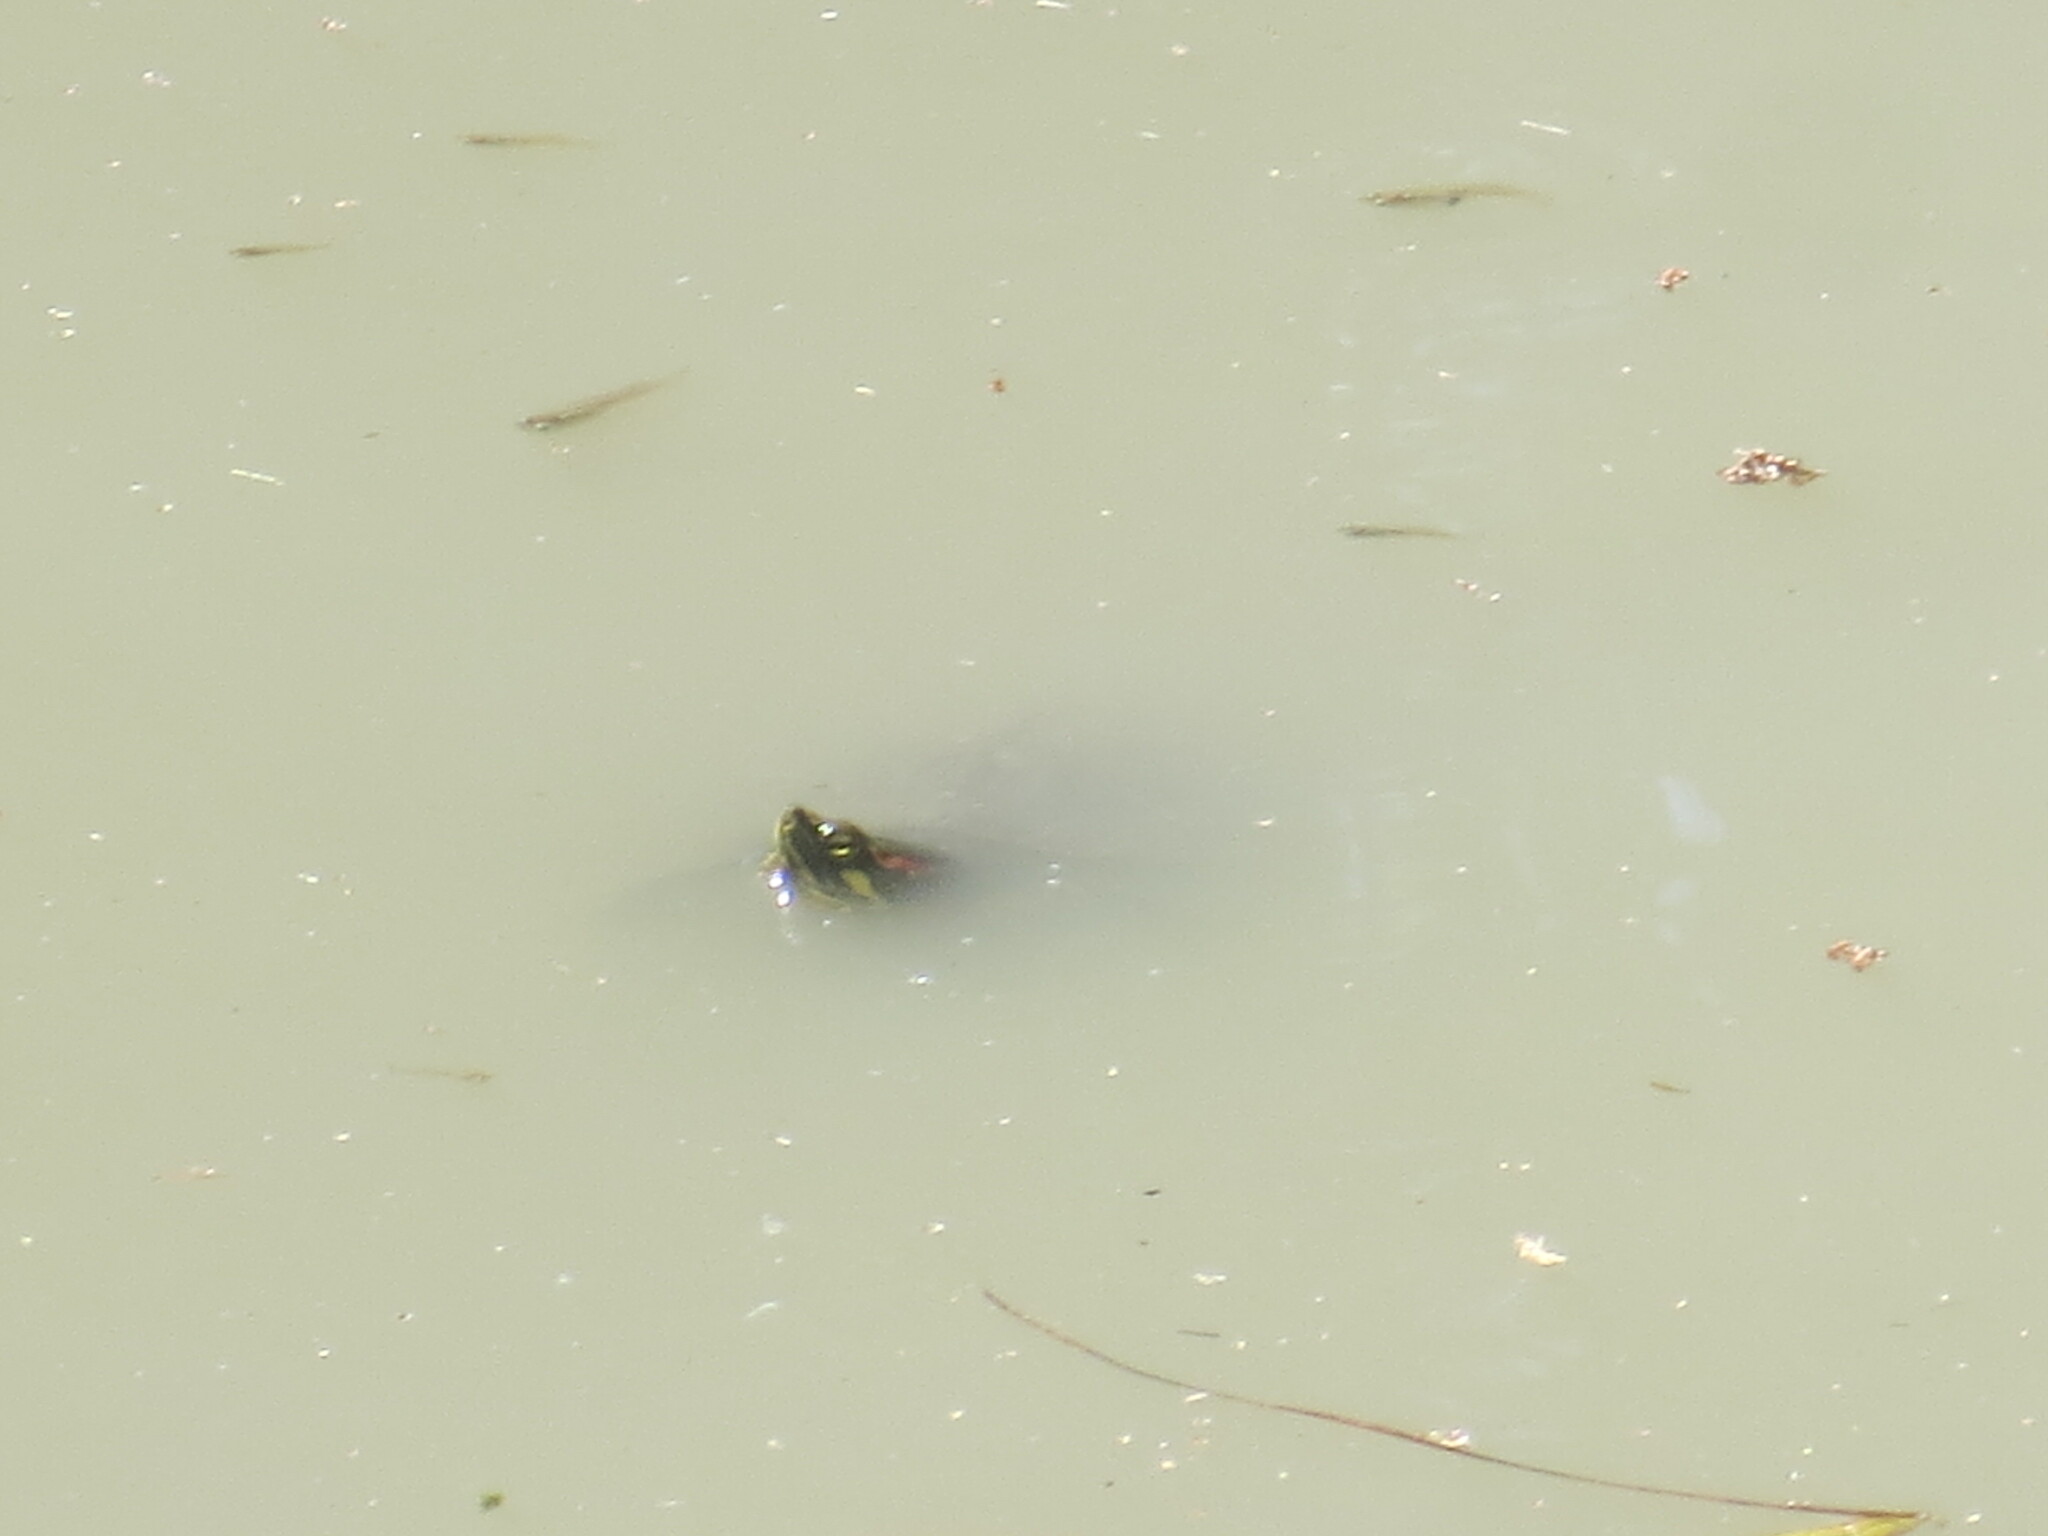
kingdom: Animalia
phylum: Chordata
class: Testudines
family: Emydidae
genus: Trachemys
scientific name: Trachemys scripta
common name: Slider
